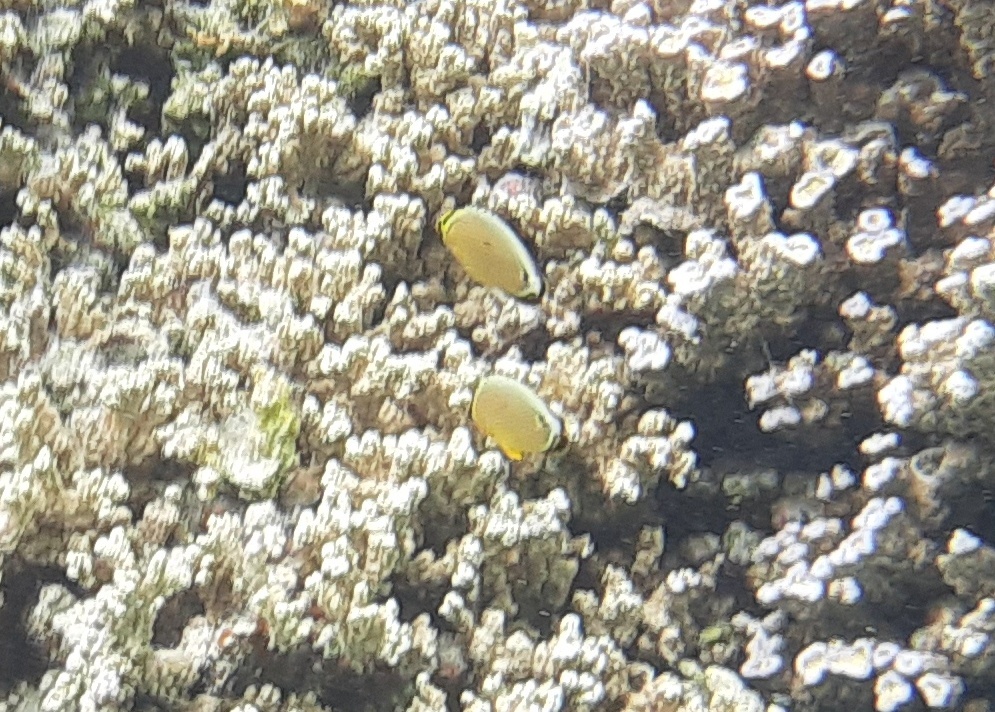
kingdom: Animalia
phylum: Chordata
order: Perciformes
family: Chaetodontidae
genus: Chaetodon
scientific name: Chaetodon lunulatus
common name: Redfin butterflyfish
